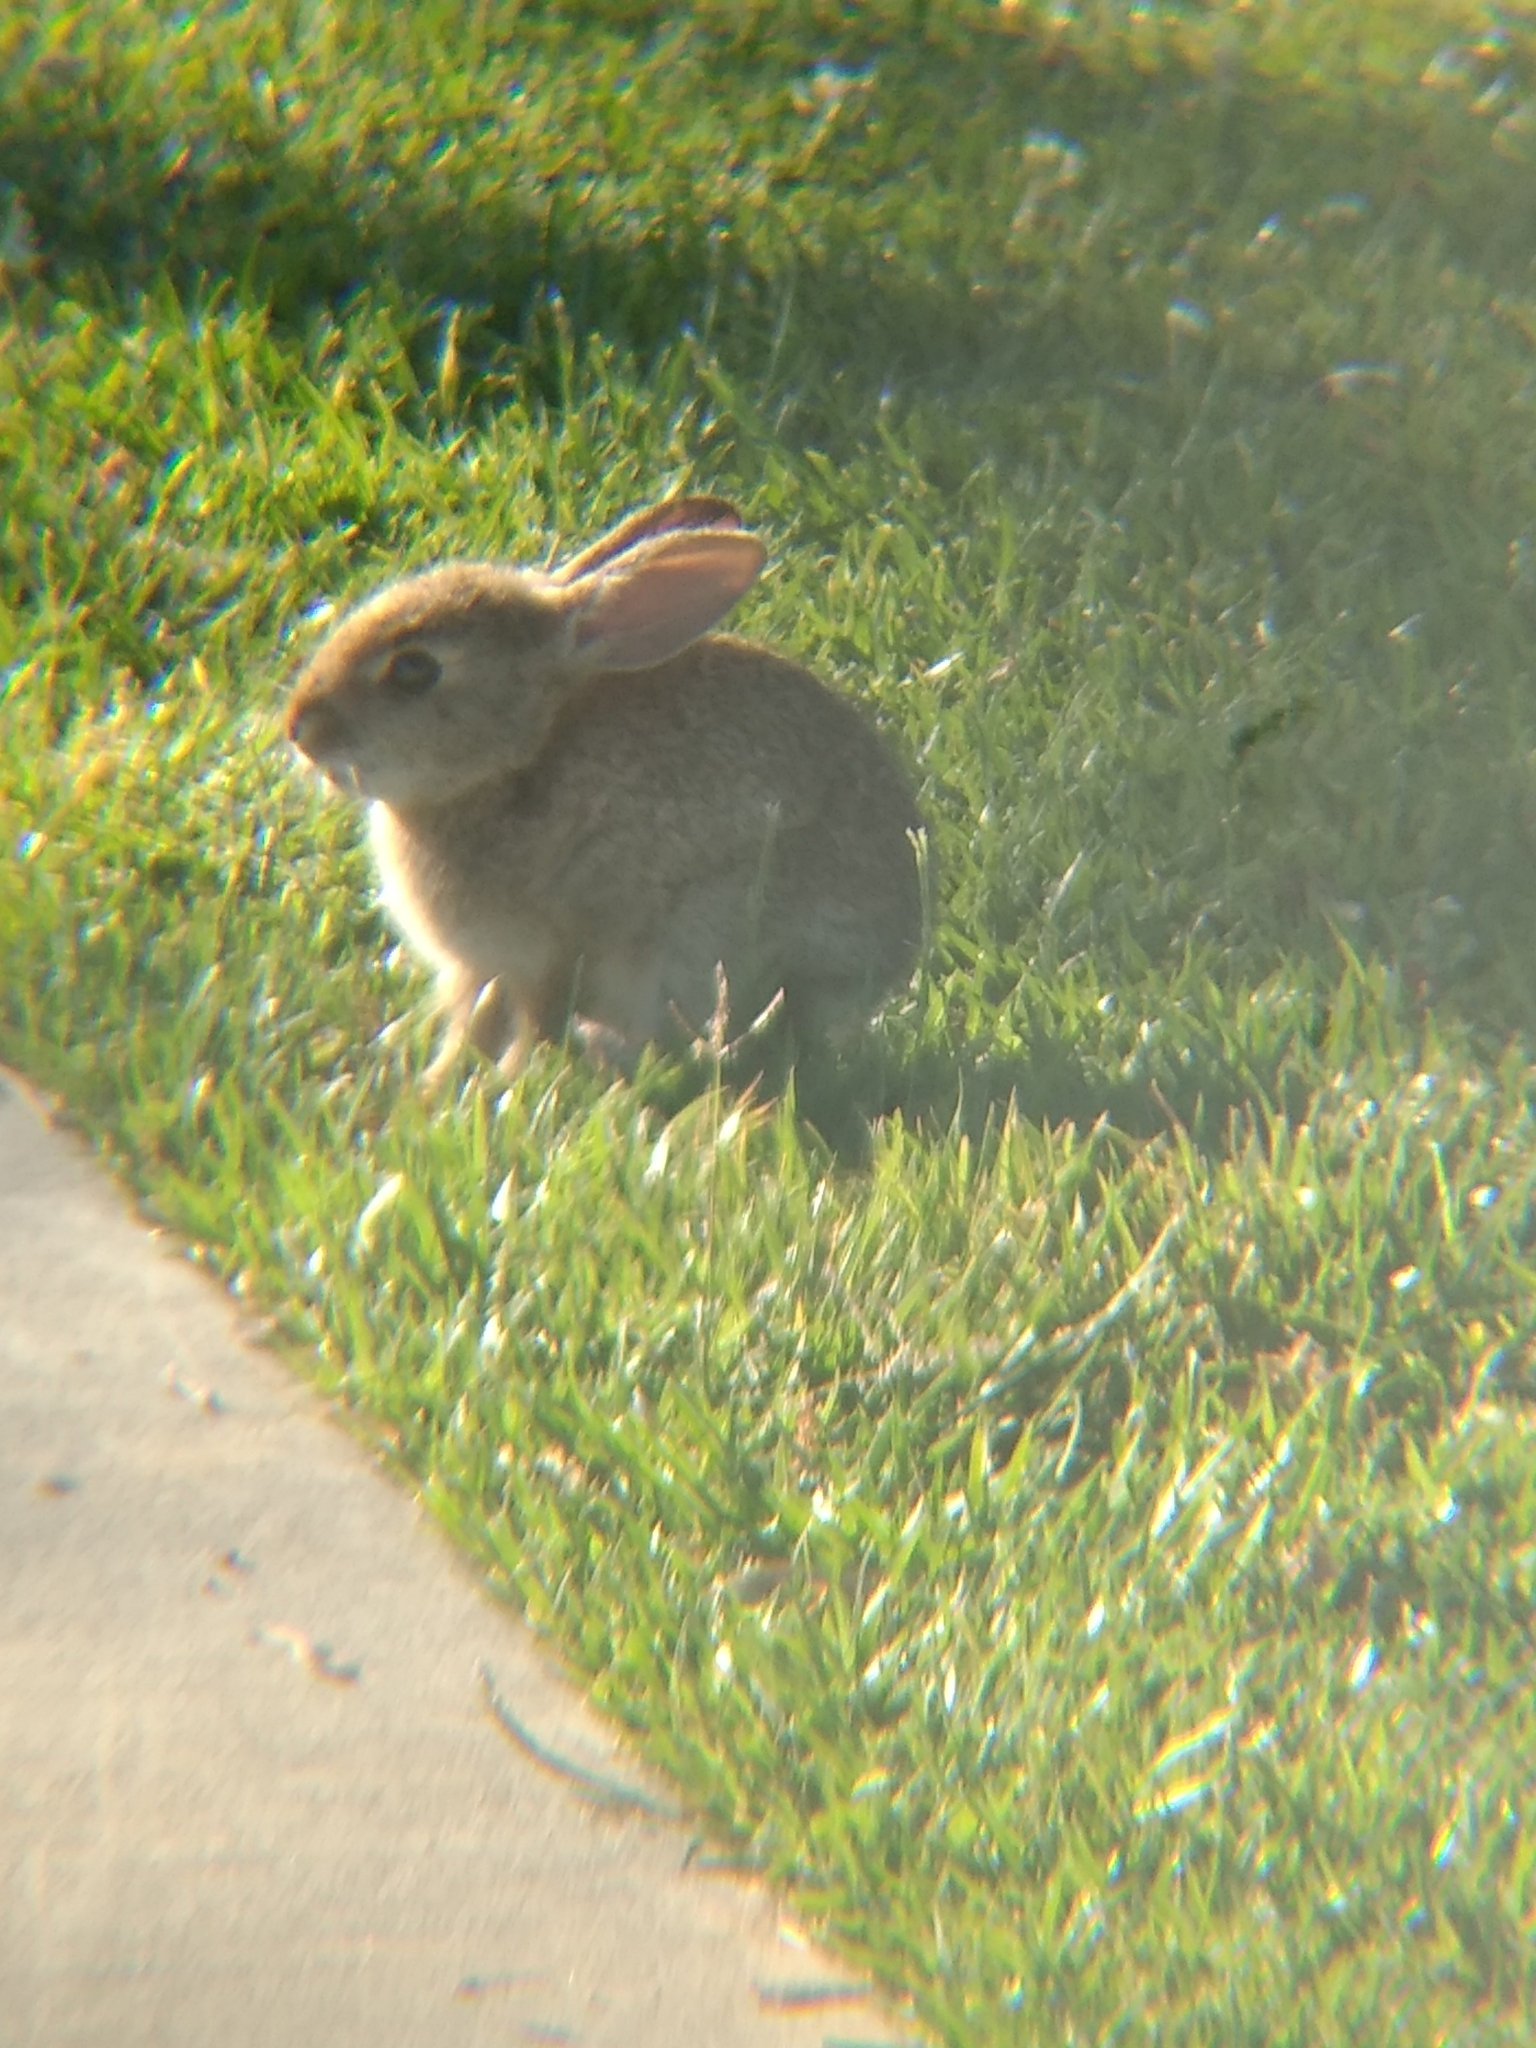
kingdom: Animalia
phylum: Chordata
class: Mammalia
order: Lagomorpha
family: Leporidae
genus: Sylvilagus
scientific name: Sylvilagus audubonii
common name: Desert cottontail
